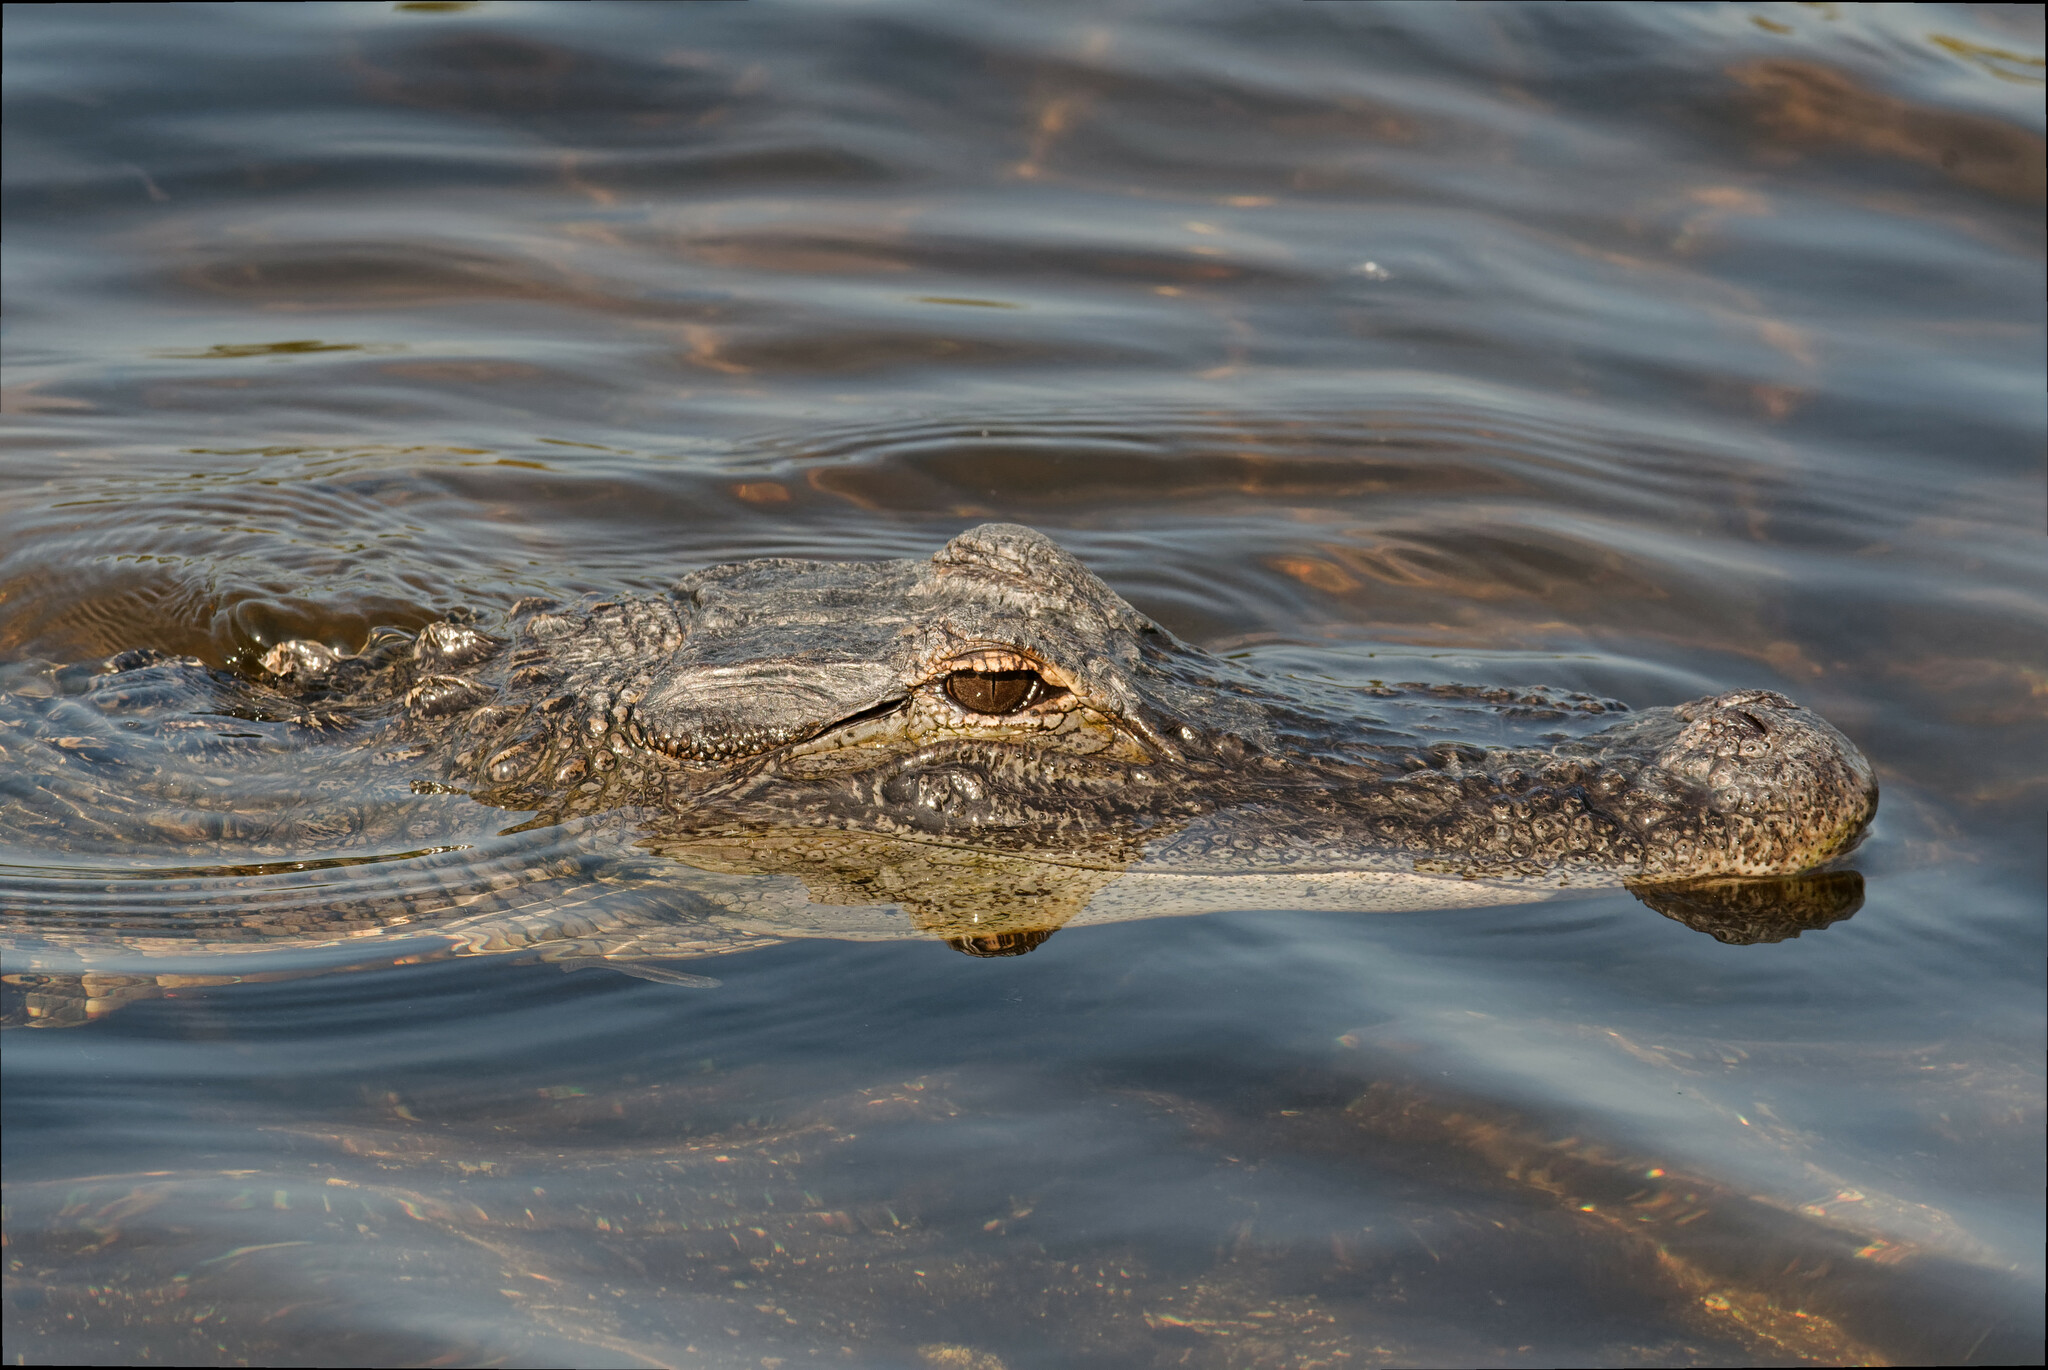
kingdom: Animalia
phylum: Chordata
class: Crocodylia
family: Alligatoridae
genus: Alligator
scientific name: Alligator mississippiensis
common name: American alligator
